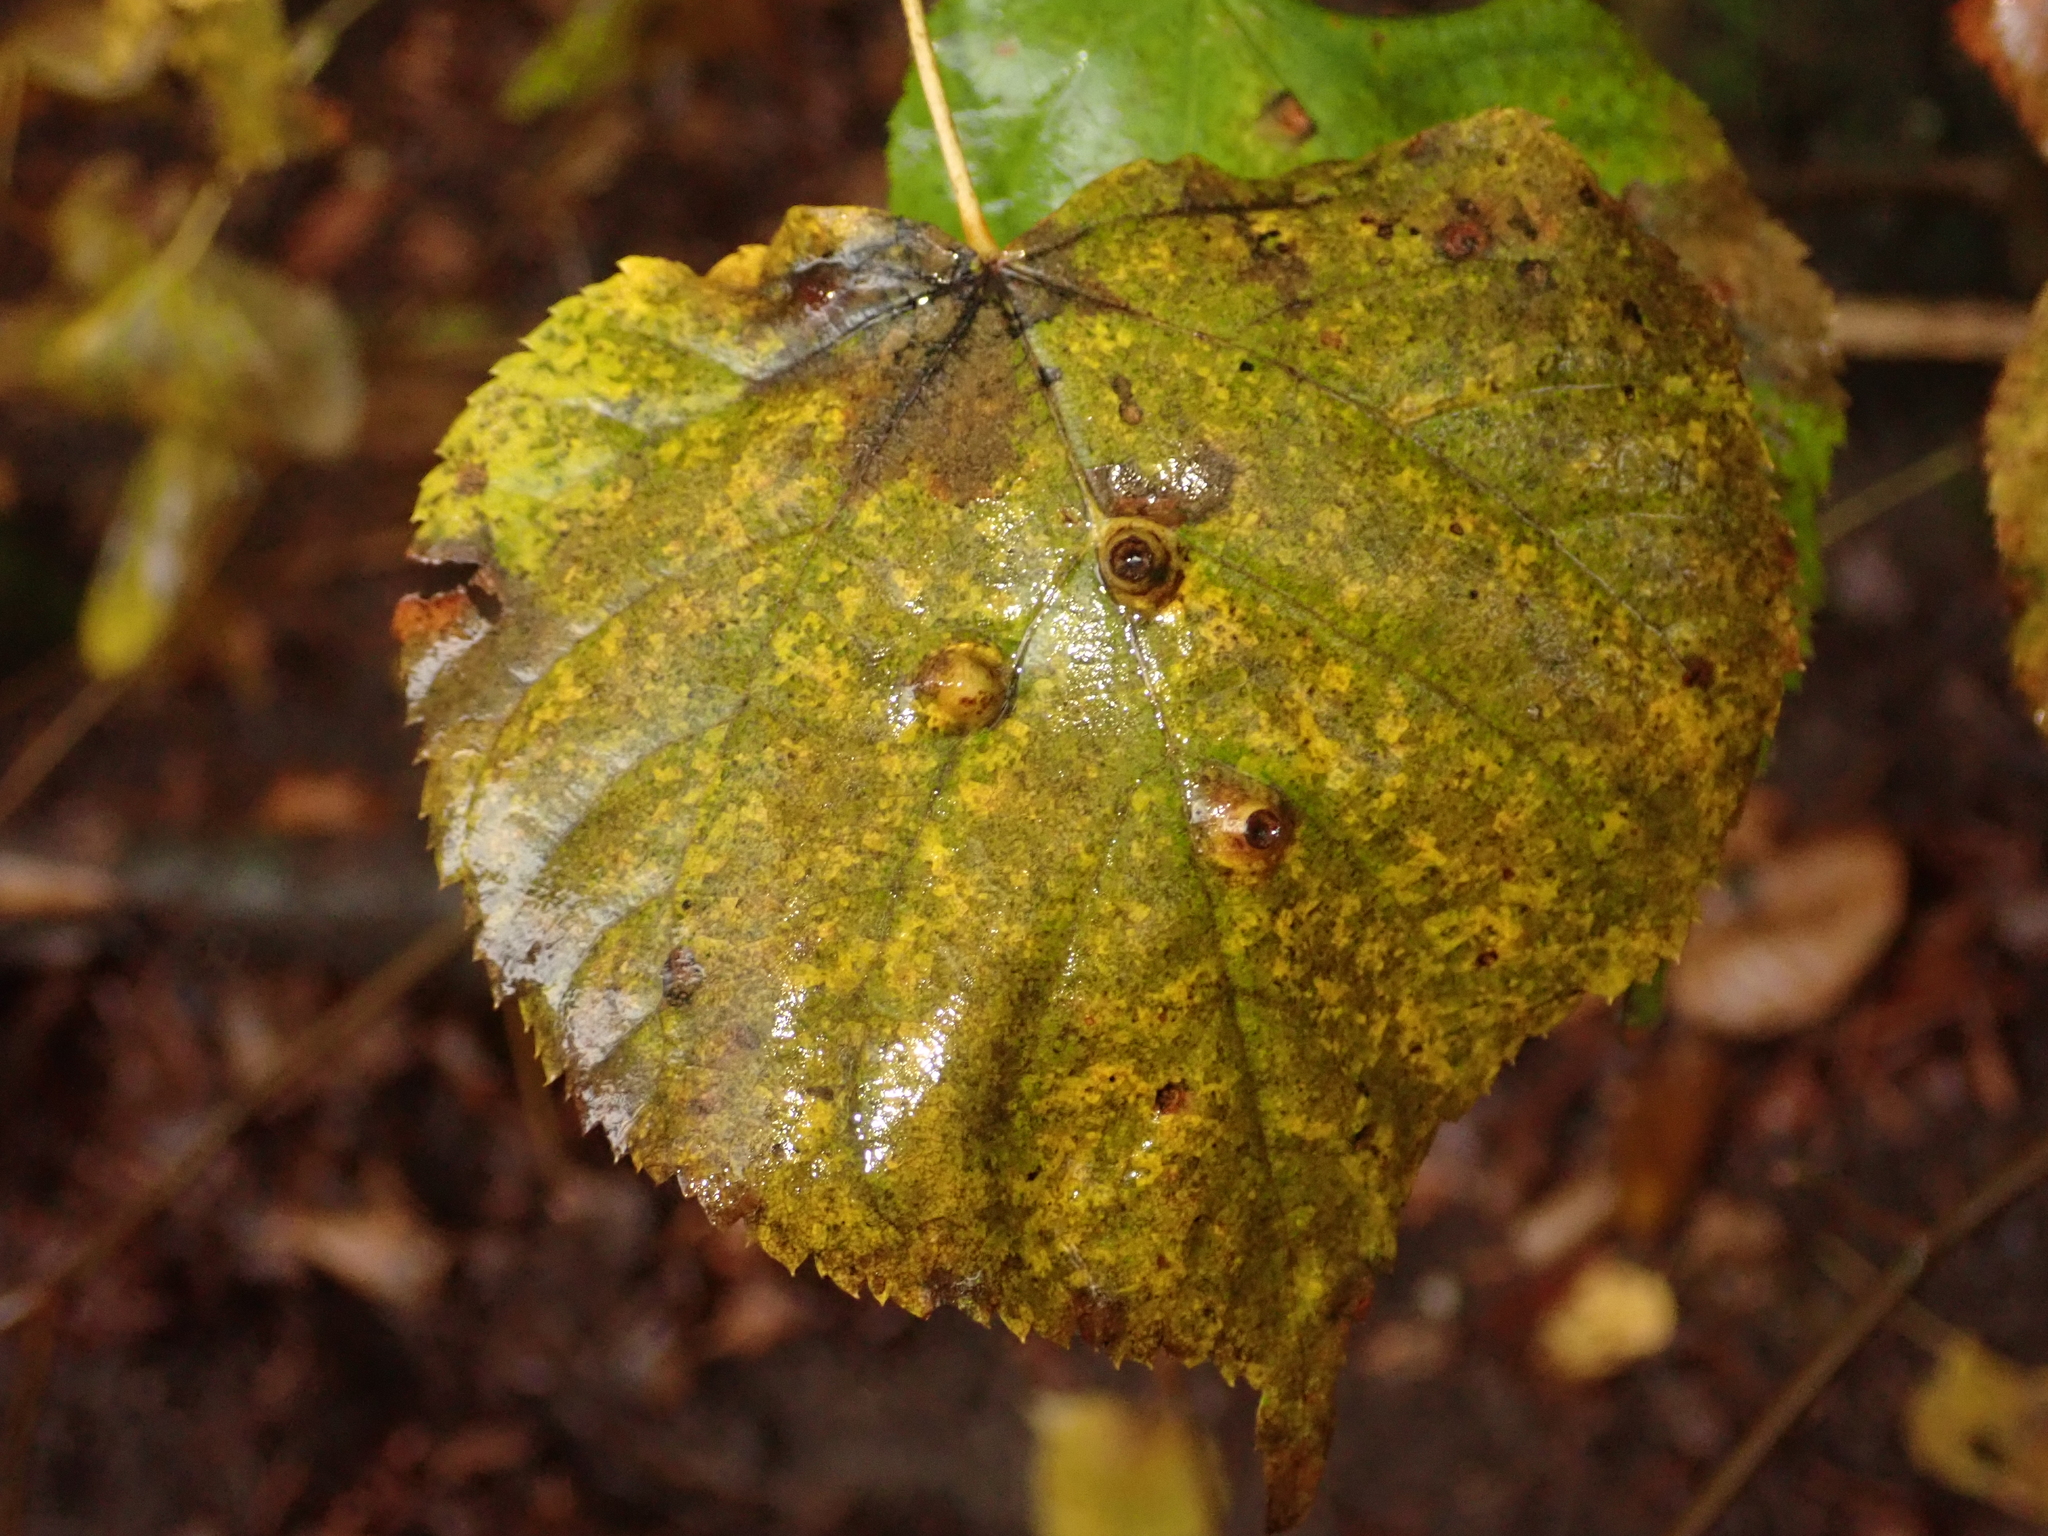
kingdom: Plantae
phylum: Tracheophyta
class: Magnoliopsida
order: Malvales
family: Malvaceae
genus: Tilia
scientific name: Tilia cordata
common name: Small-leaved lime
